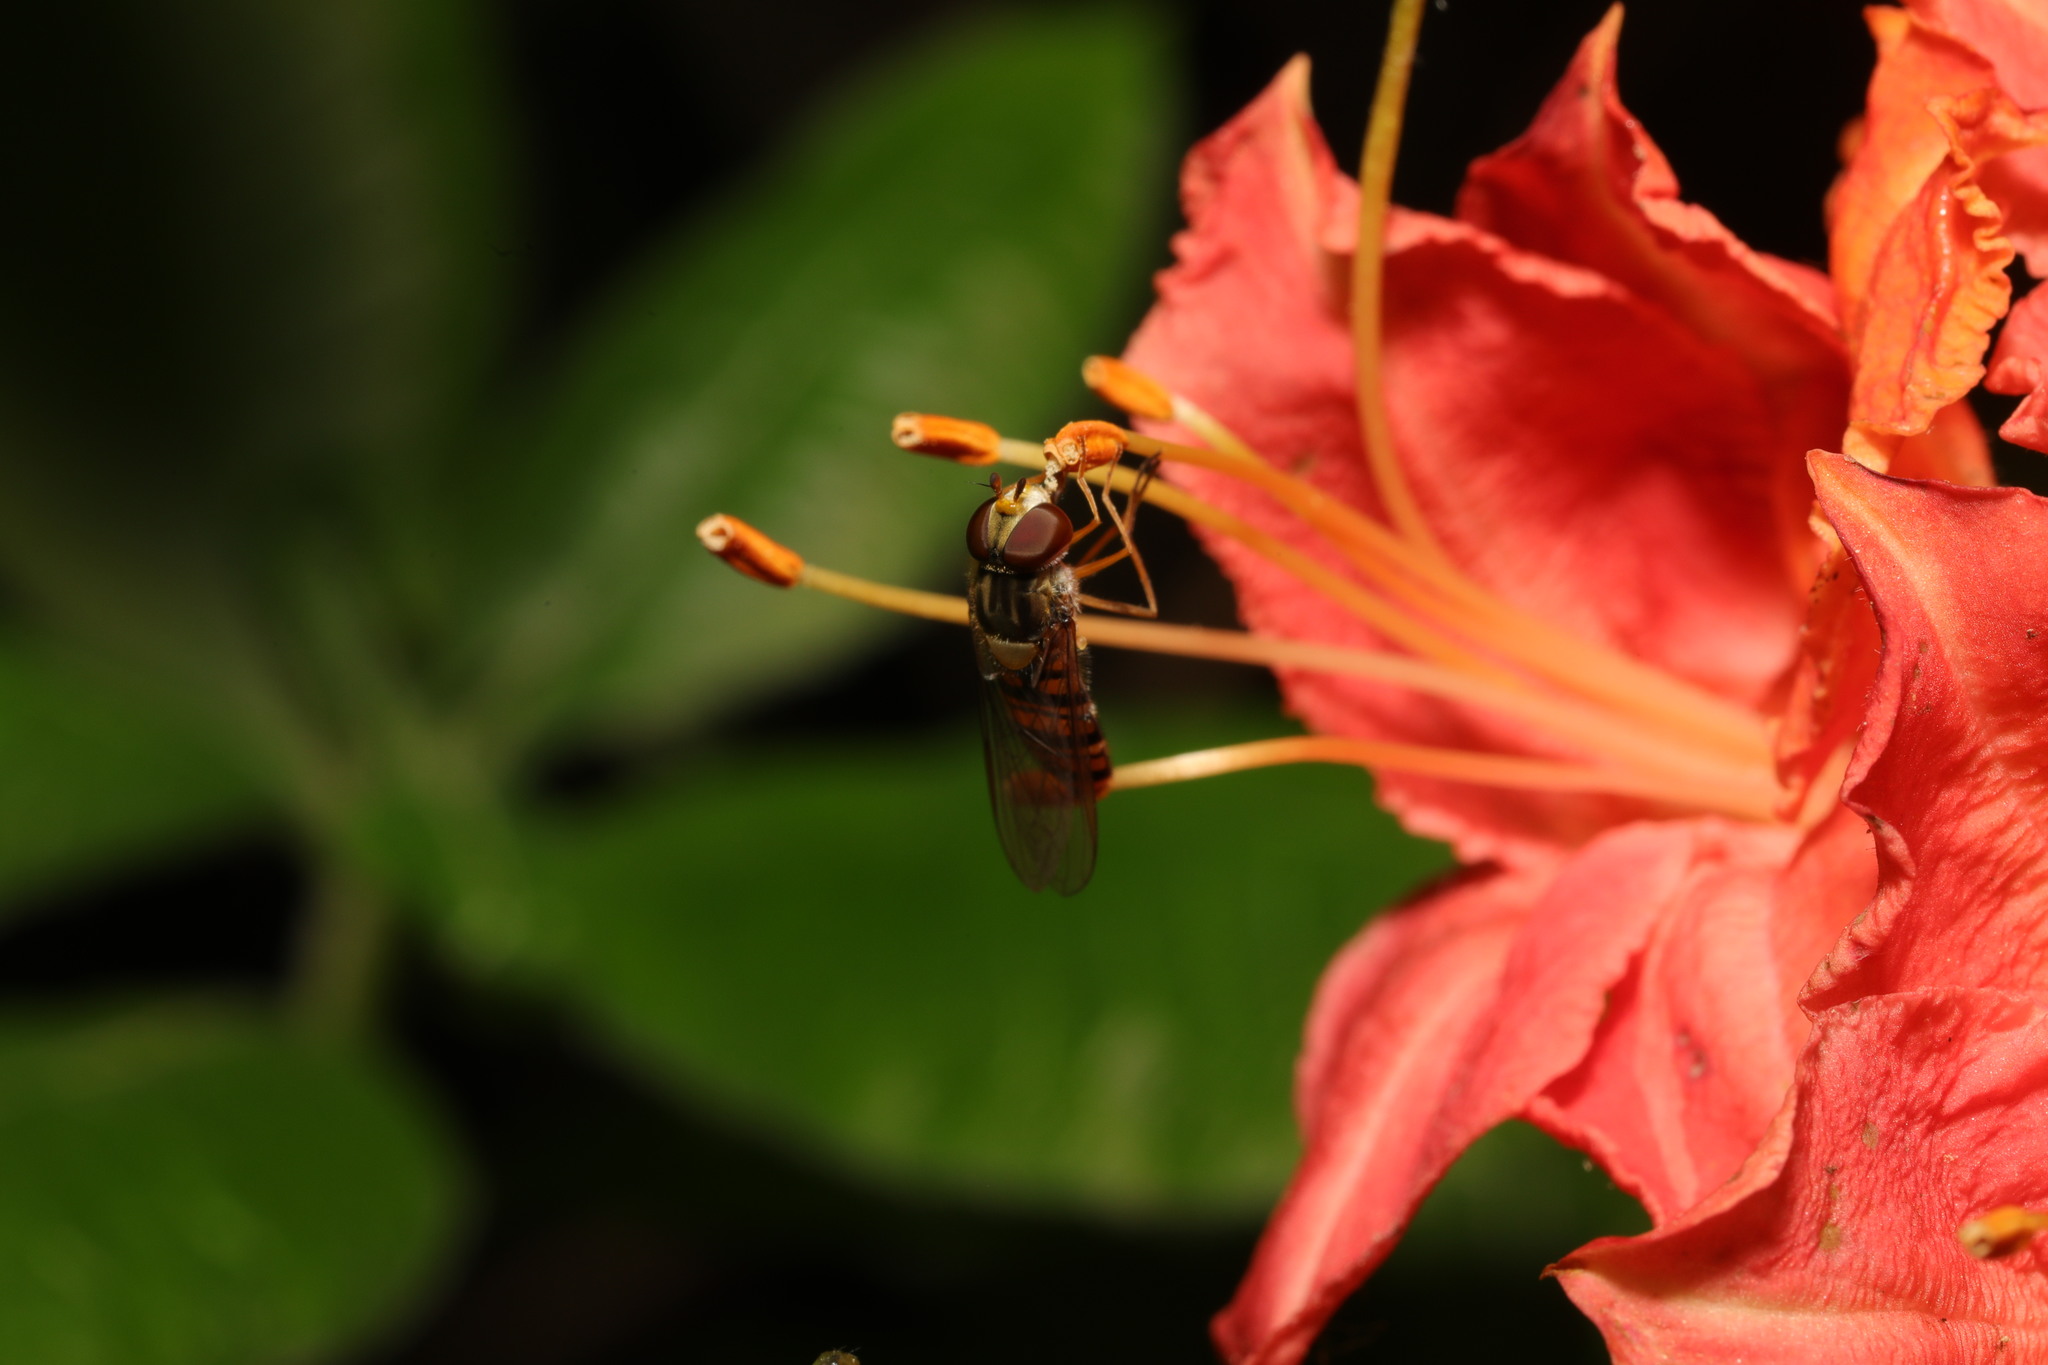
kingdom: Animalia
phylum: Arthropoda
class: Insecta
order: Diptera
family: Syrphidae
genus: Episyrphus
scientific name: Episyrphus balteatus
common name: Marmalade hoverfly
